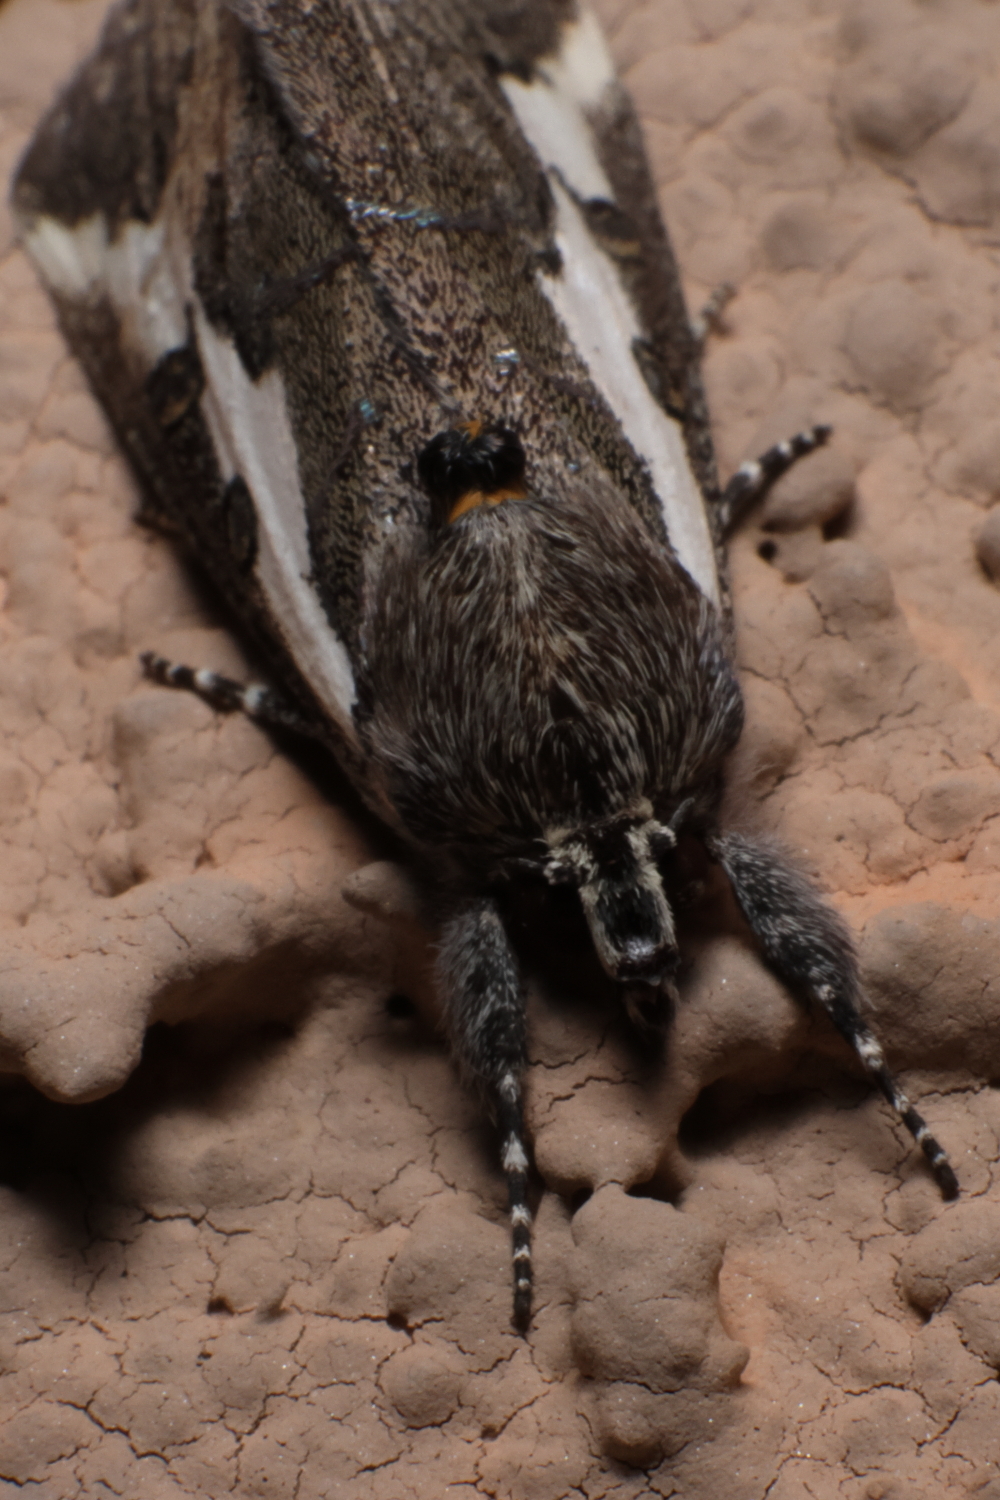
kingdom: Animalia
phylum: Arthropoda
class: Insecta
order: Lepidoptera
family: Noctuidae
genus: Euscirrhopterus
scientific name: Euscirrhopterus gloveri
